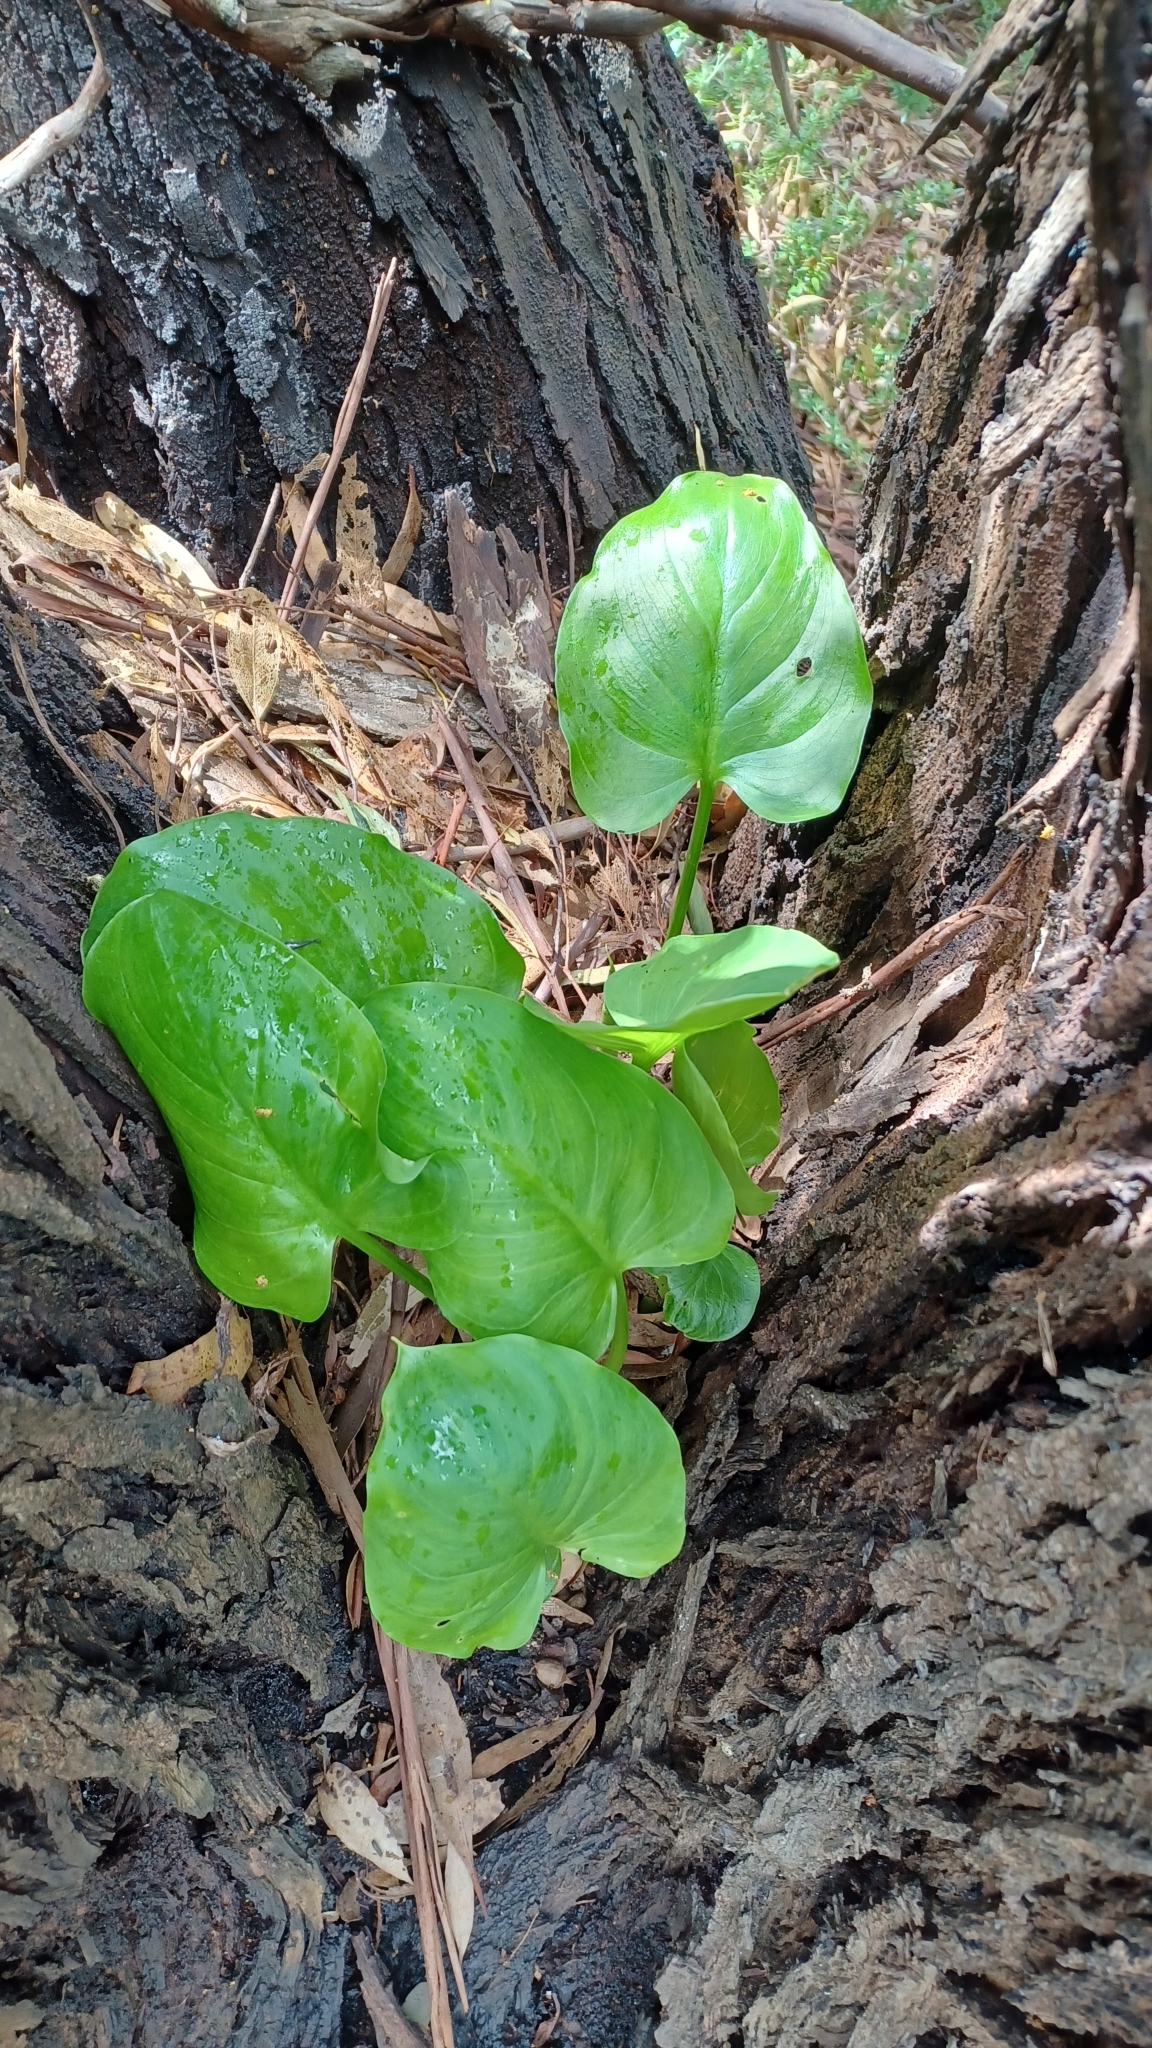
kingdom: Plantae
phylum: Tracheophyta
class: Liliopsida
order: Alismatales
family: Araceae
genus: Zantedeschia
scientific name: Zantedeschia aethiopica
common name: Altar-lily
